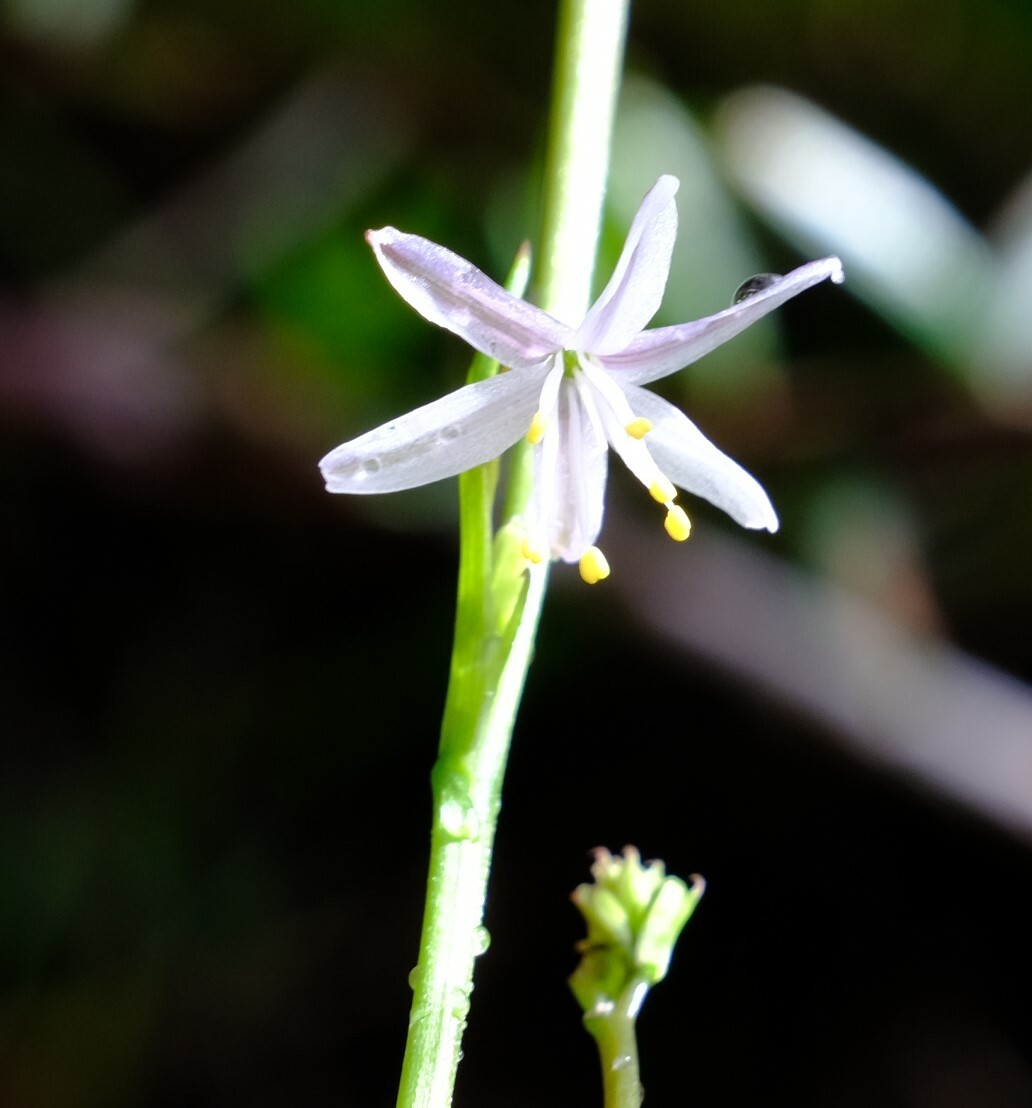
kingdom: Plantae
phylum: Tracheophyta
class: Liliopsida
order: Asparagales
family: Asphodelaceae
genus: Caesia
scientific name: Caesia micrantha
